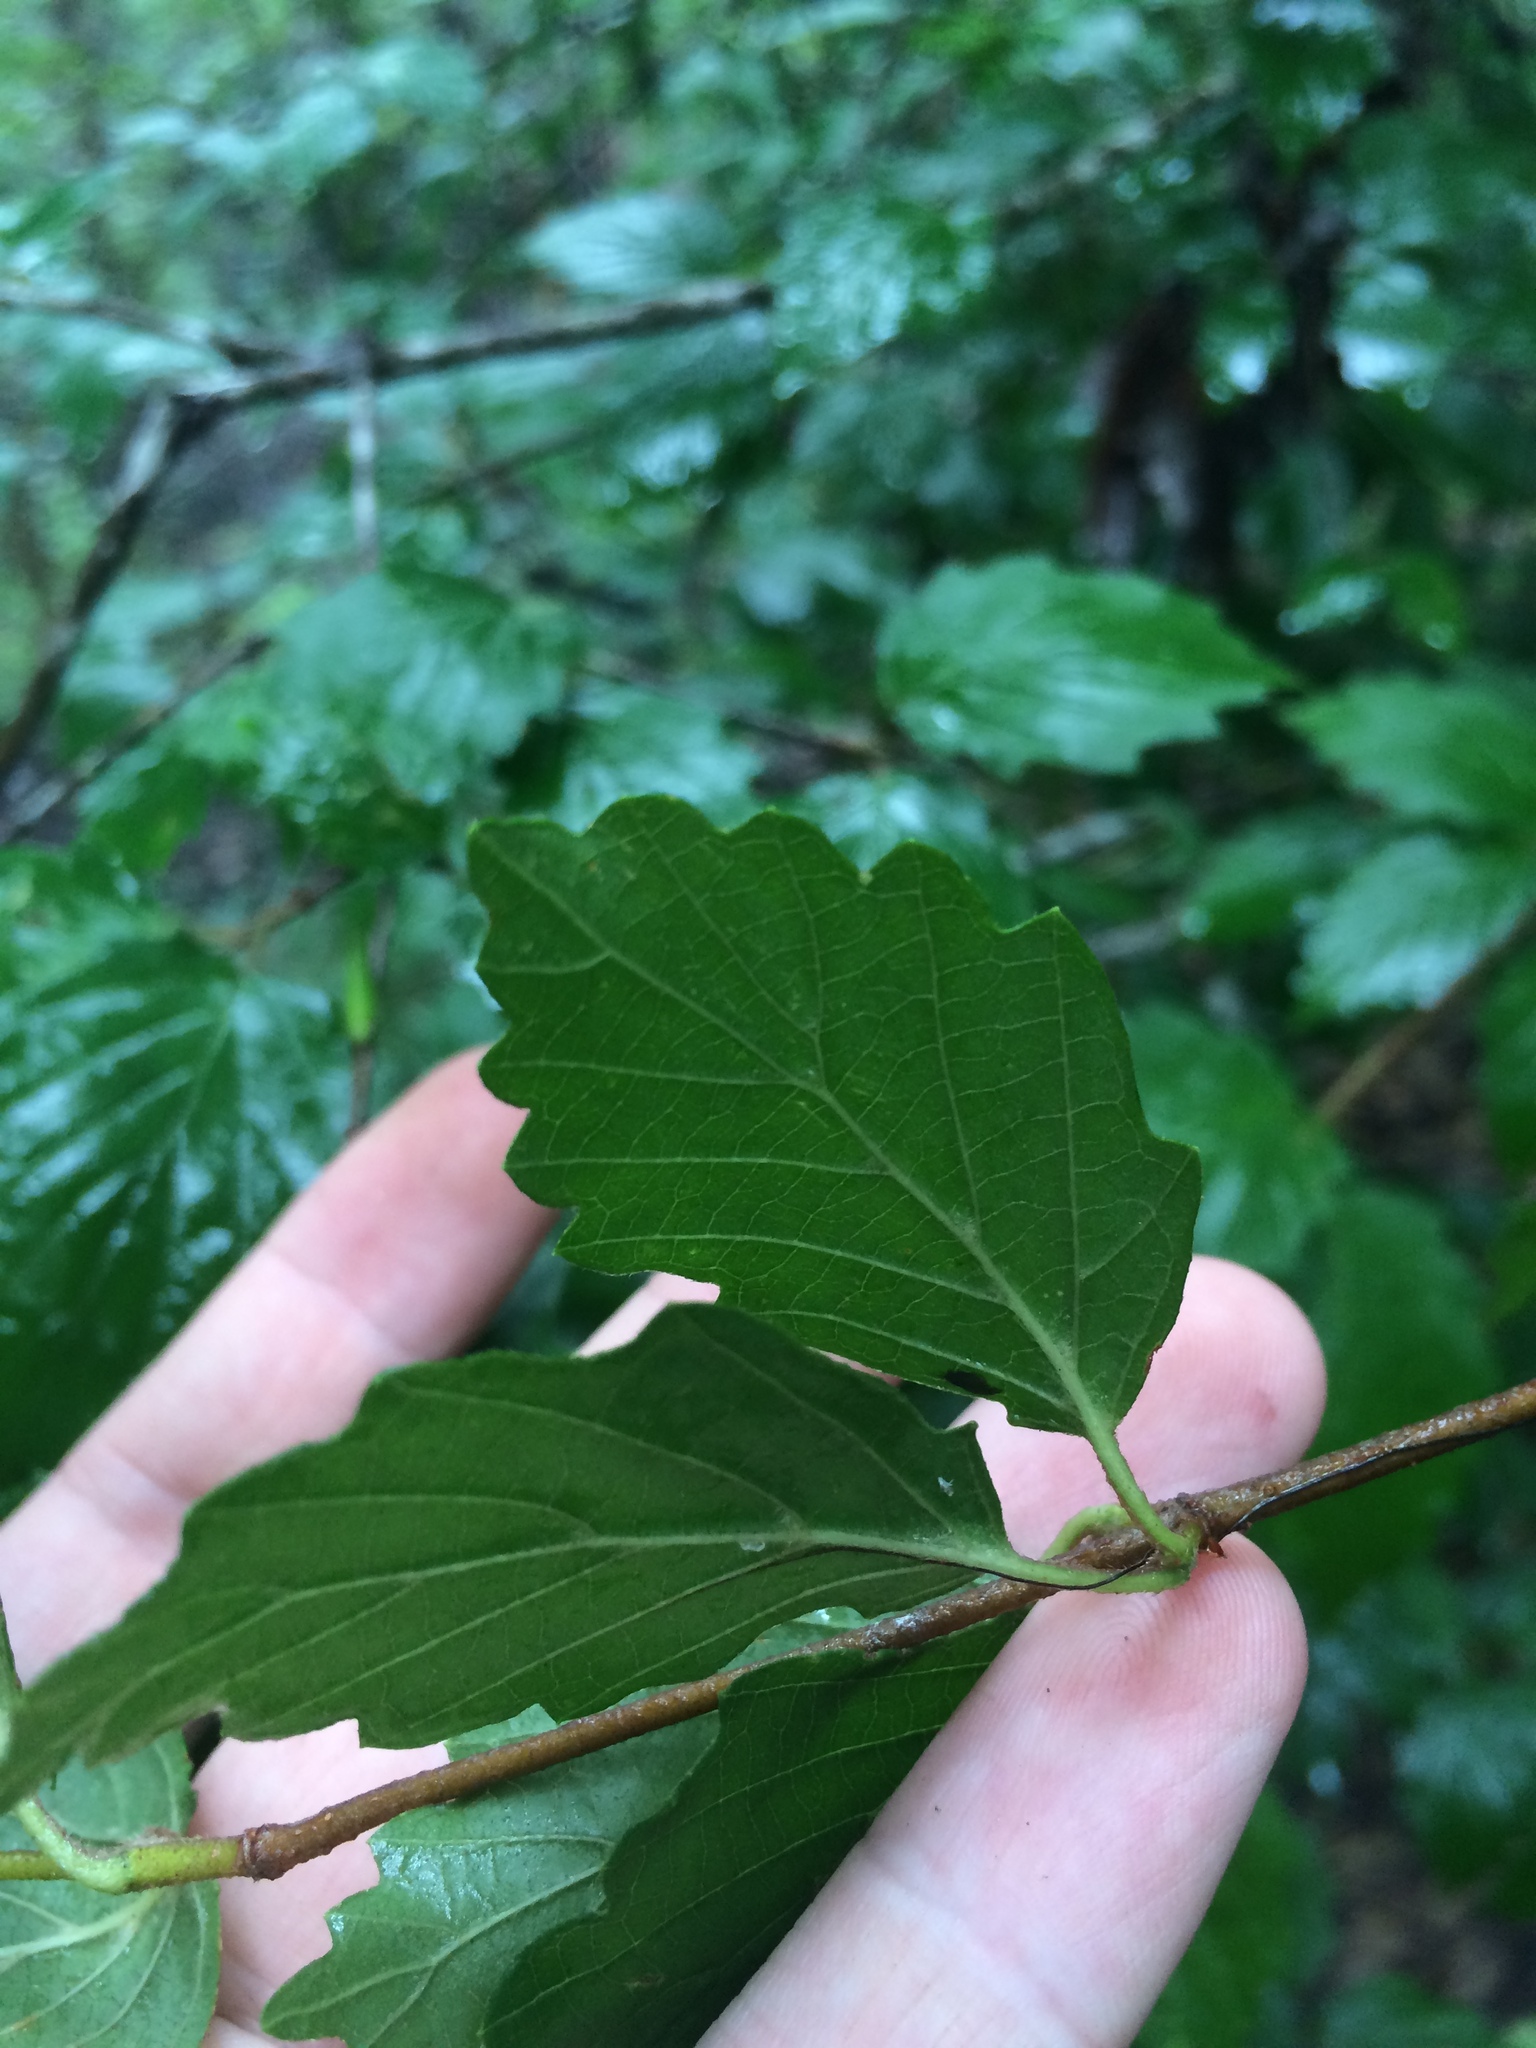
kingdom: Plantae
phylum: Tracheophyta
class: Magnoliopsida
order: Dipsacales
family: Viburnaceae
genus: Viburnum
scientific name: Viburnum dentatum
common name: Arrow-wood
